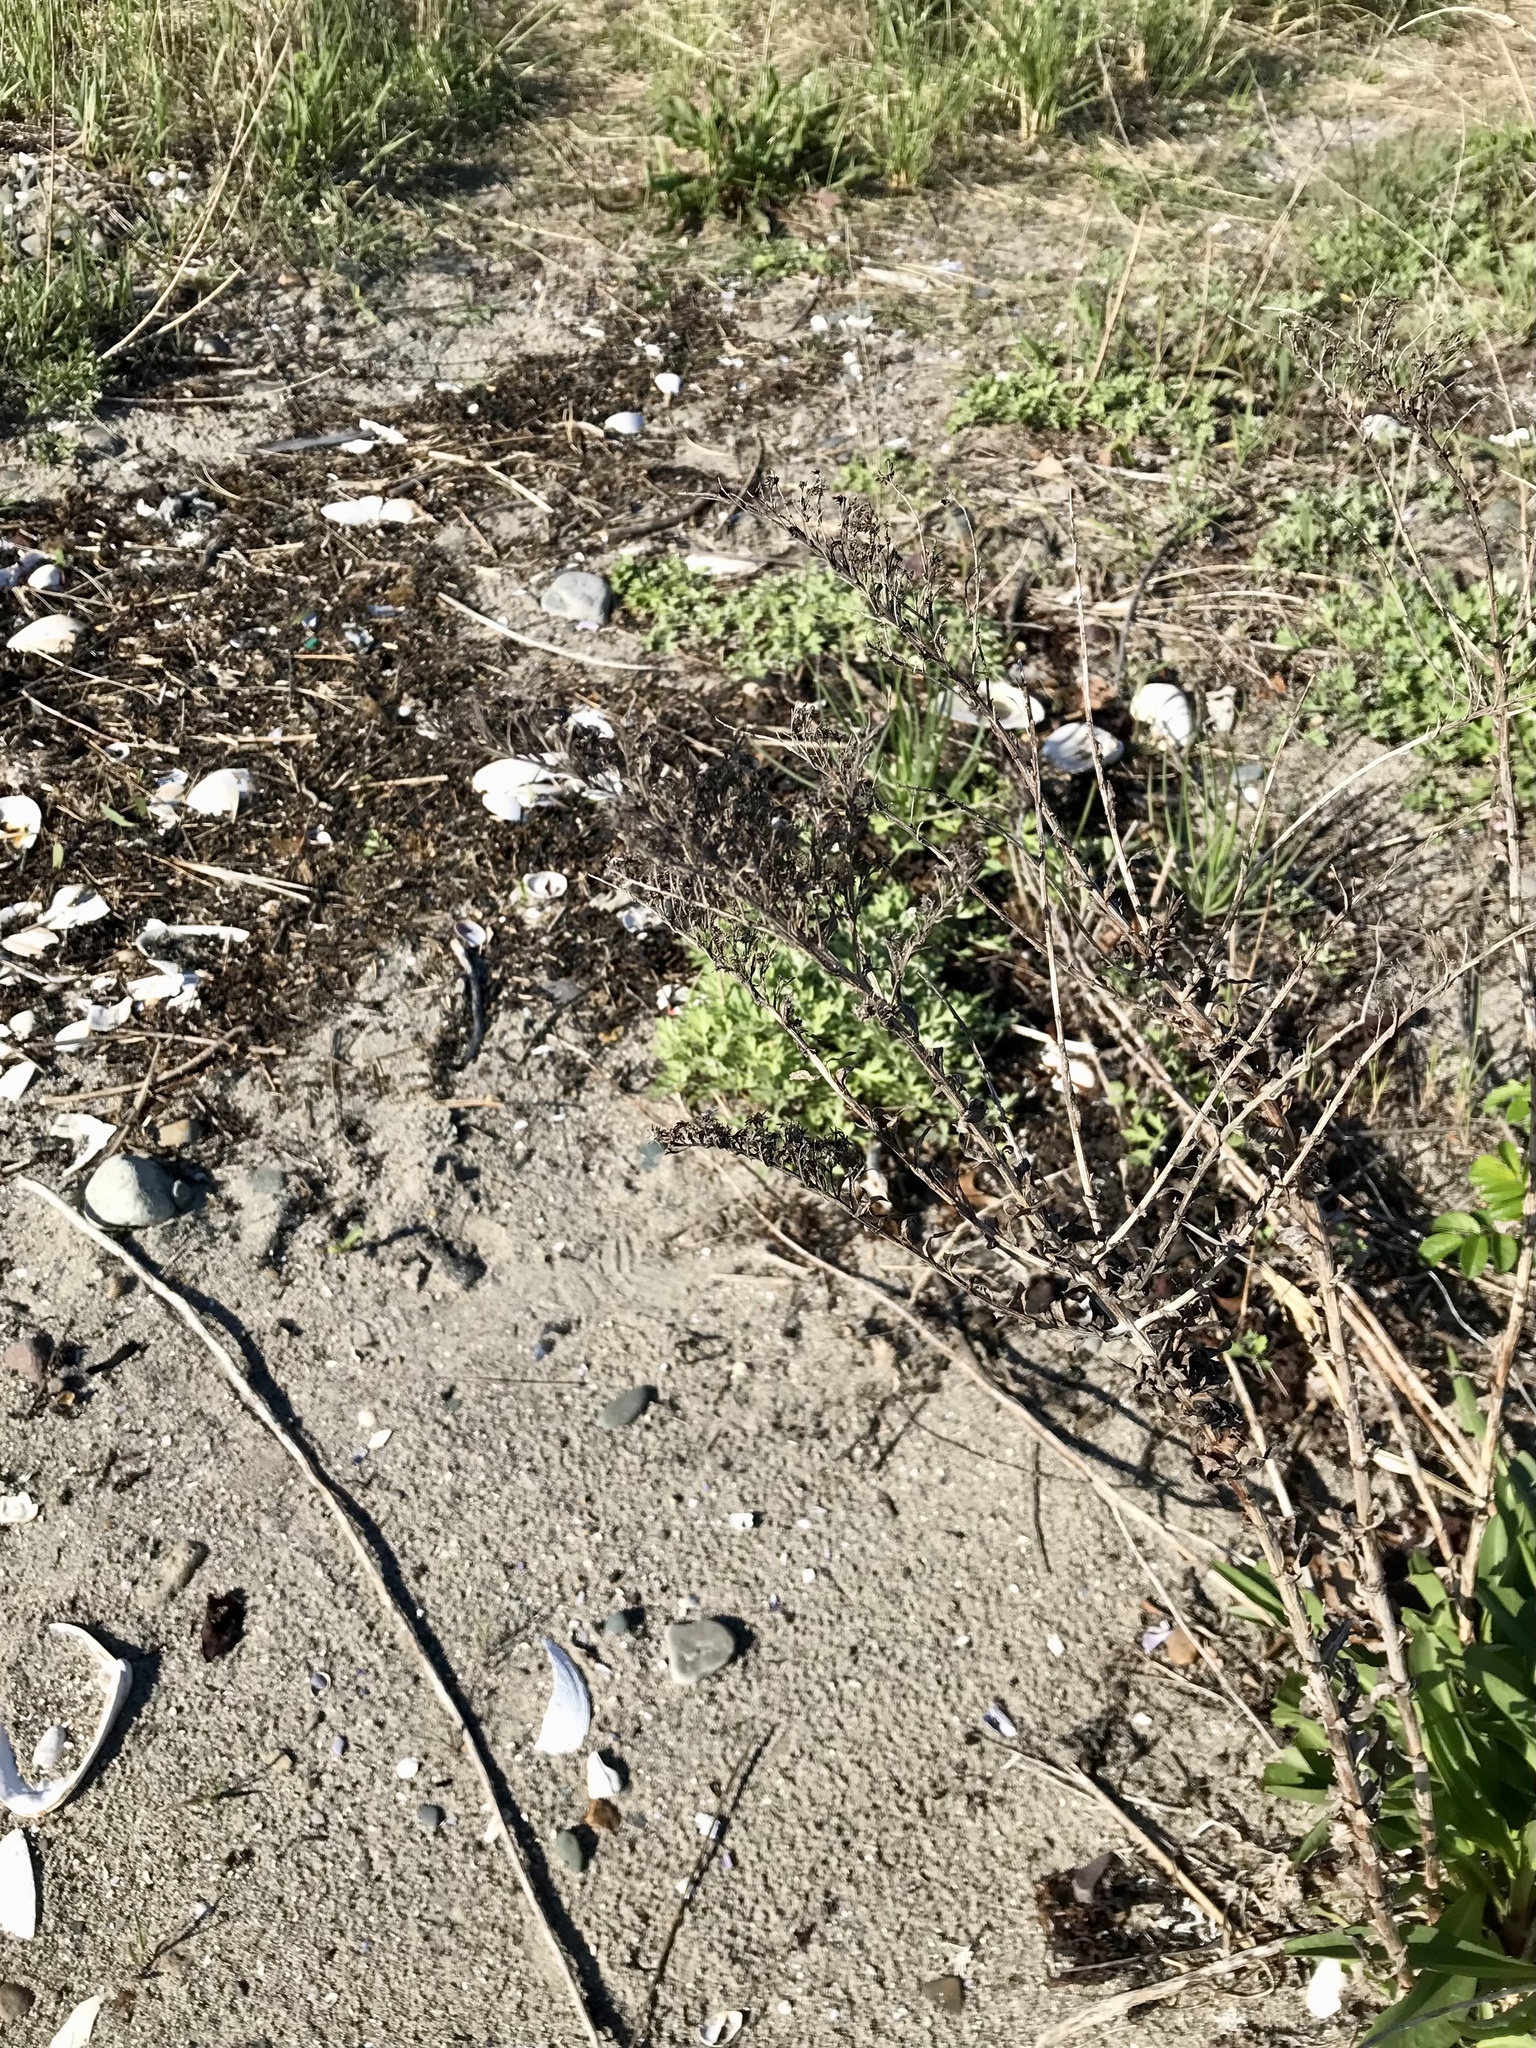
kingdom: Plantae
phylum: Tracheophyta
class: Magnoliopsida
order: Asterales
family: Asteraceae
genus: Solidago
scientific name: Solidago sempervirens
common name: Salt-marsh goldenrod
